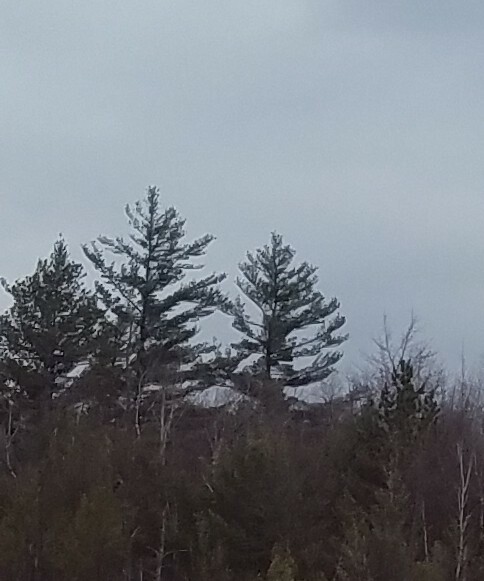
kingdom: Plantae
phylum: Tracheophyta
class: Pinopsida
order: Pinales
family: Pinaceae
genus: Pinus
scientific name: Pinus strobus
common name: Weymouth pine
